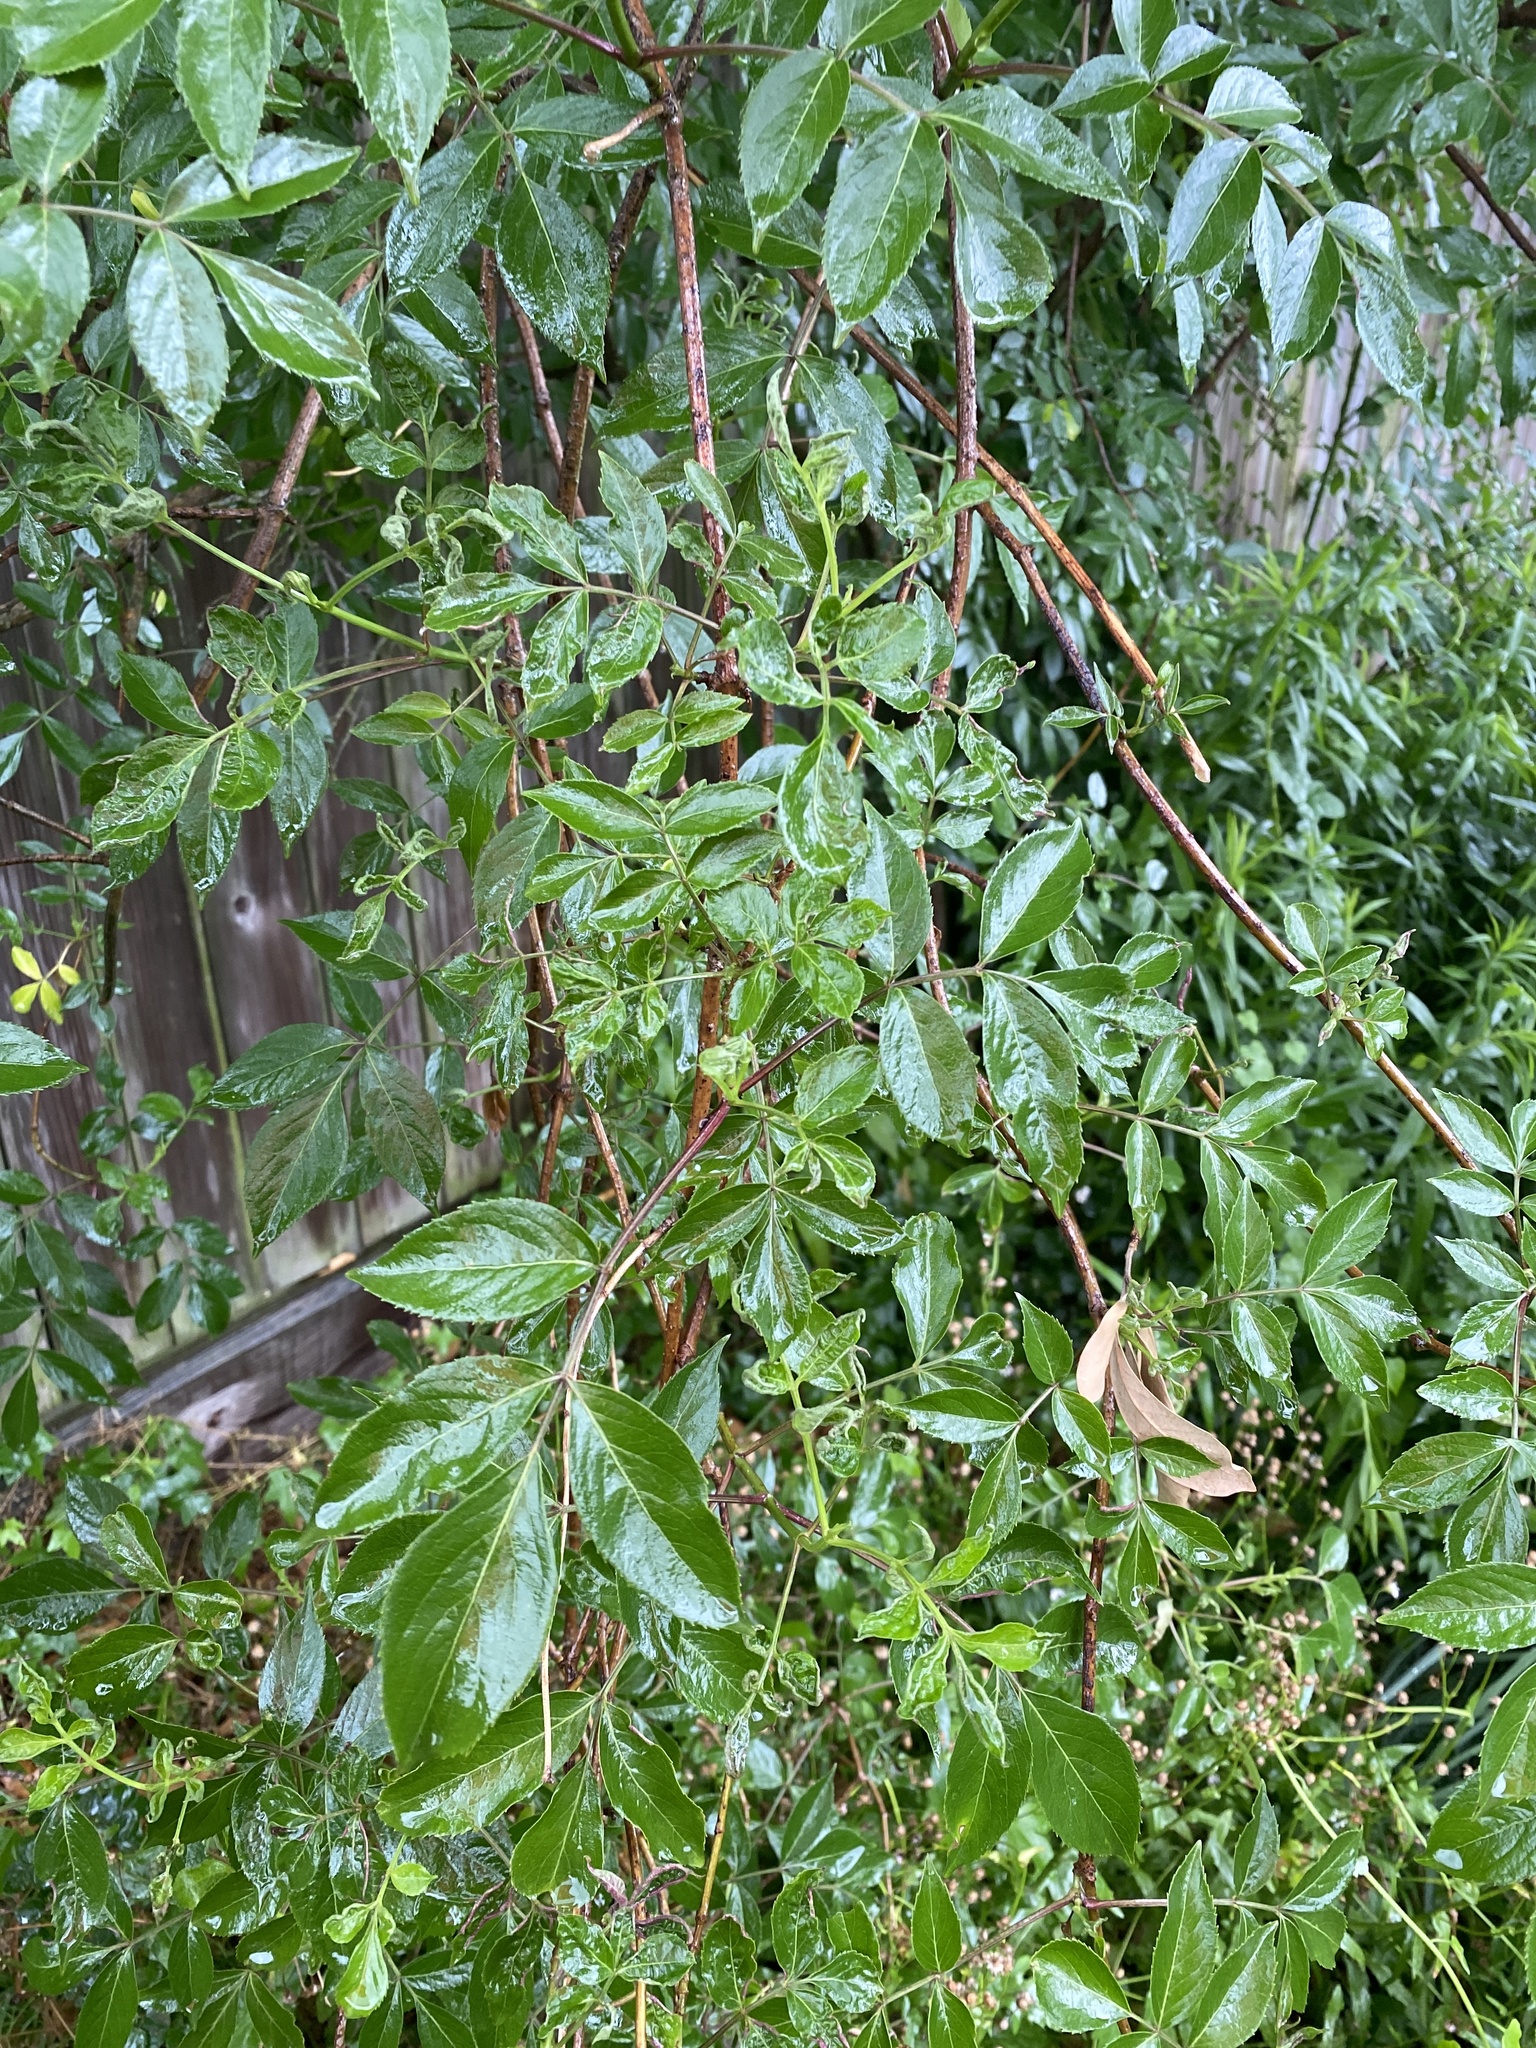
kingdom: Plantae
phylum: Tracheophyta
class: Magnoliopsida
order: Dipsacales
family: Viburnaceae
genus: Sambucus
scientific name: Sambucus canadensis
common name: American elder
